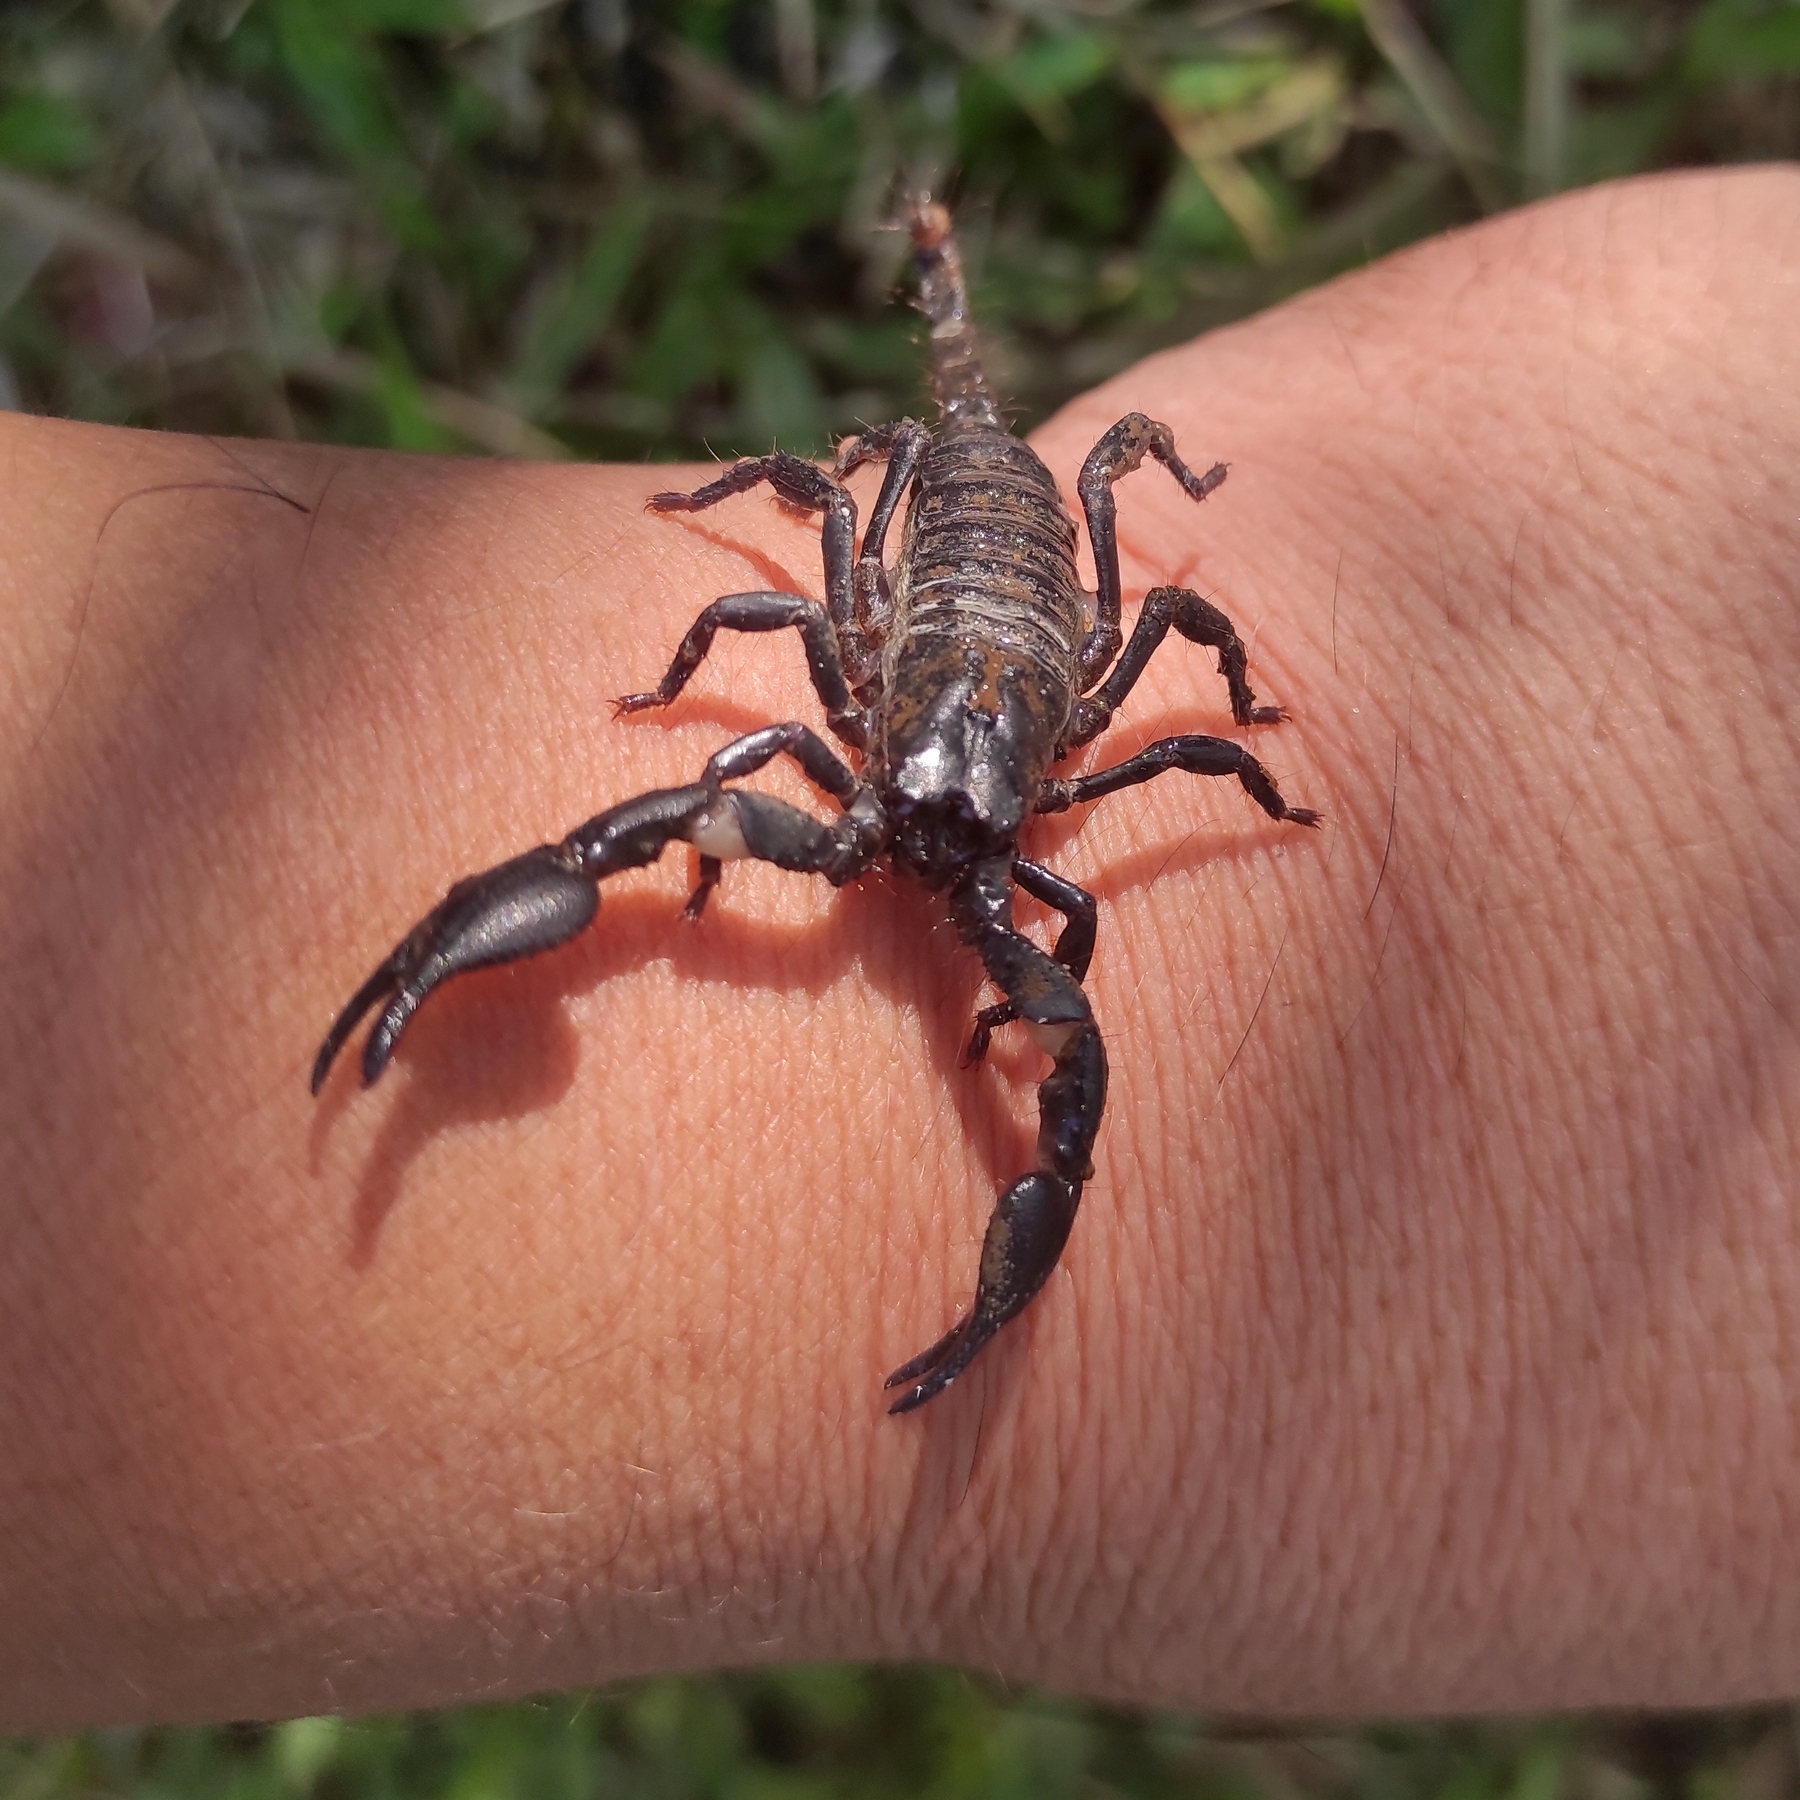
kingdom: Animalia
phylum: Arthropoda
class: Arachnida
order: Scorpiones
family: Scorpionidae
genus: Javanimetrus
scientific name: Javanimetrus cyaneus
